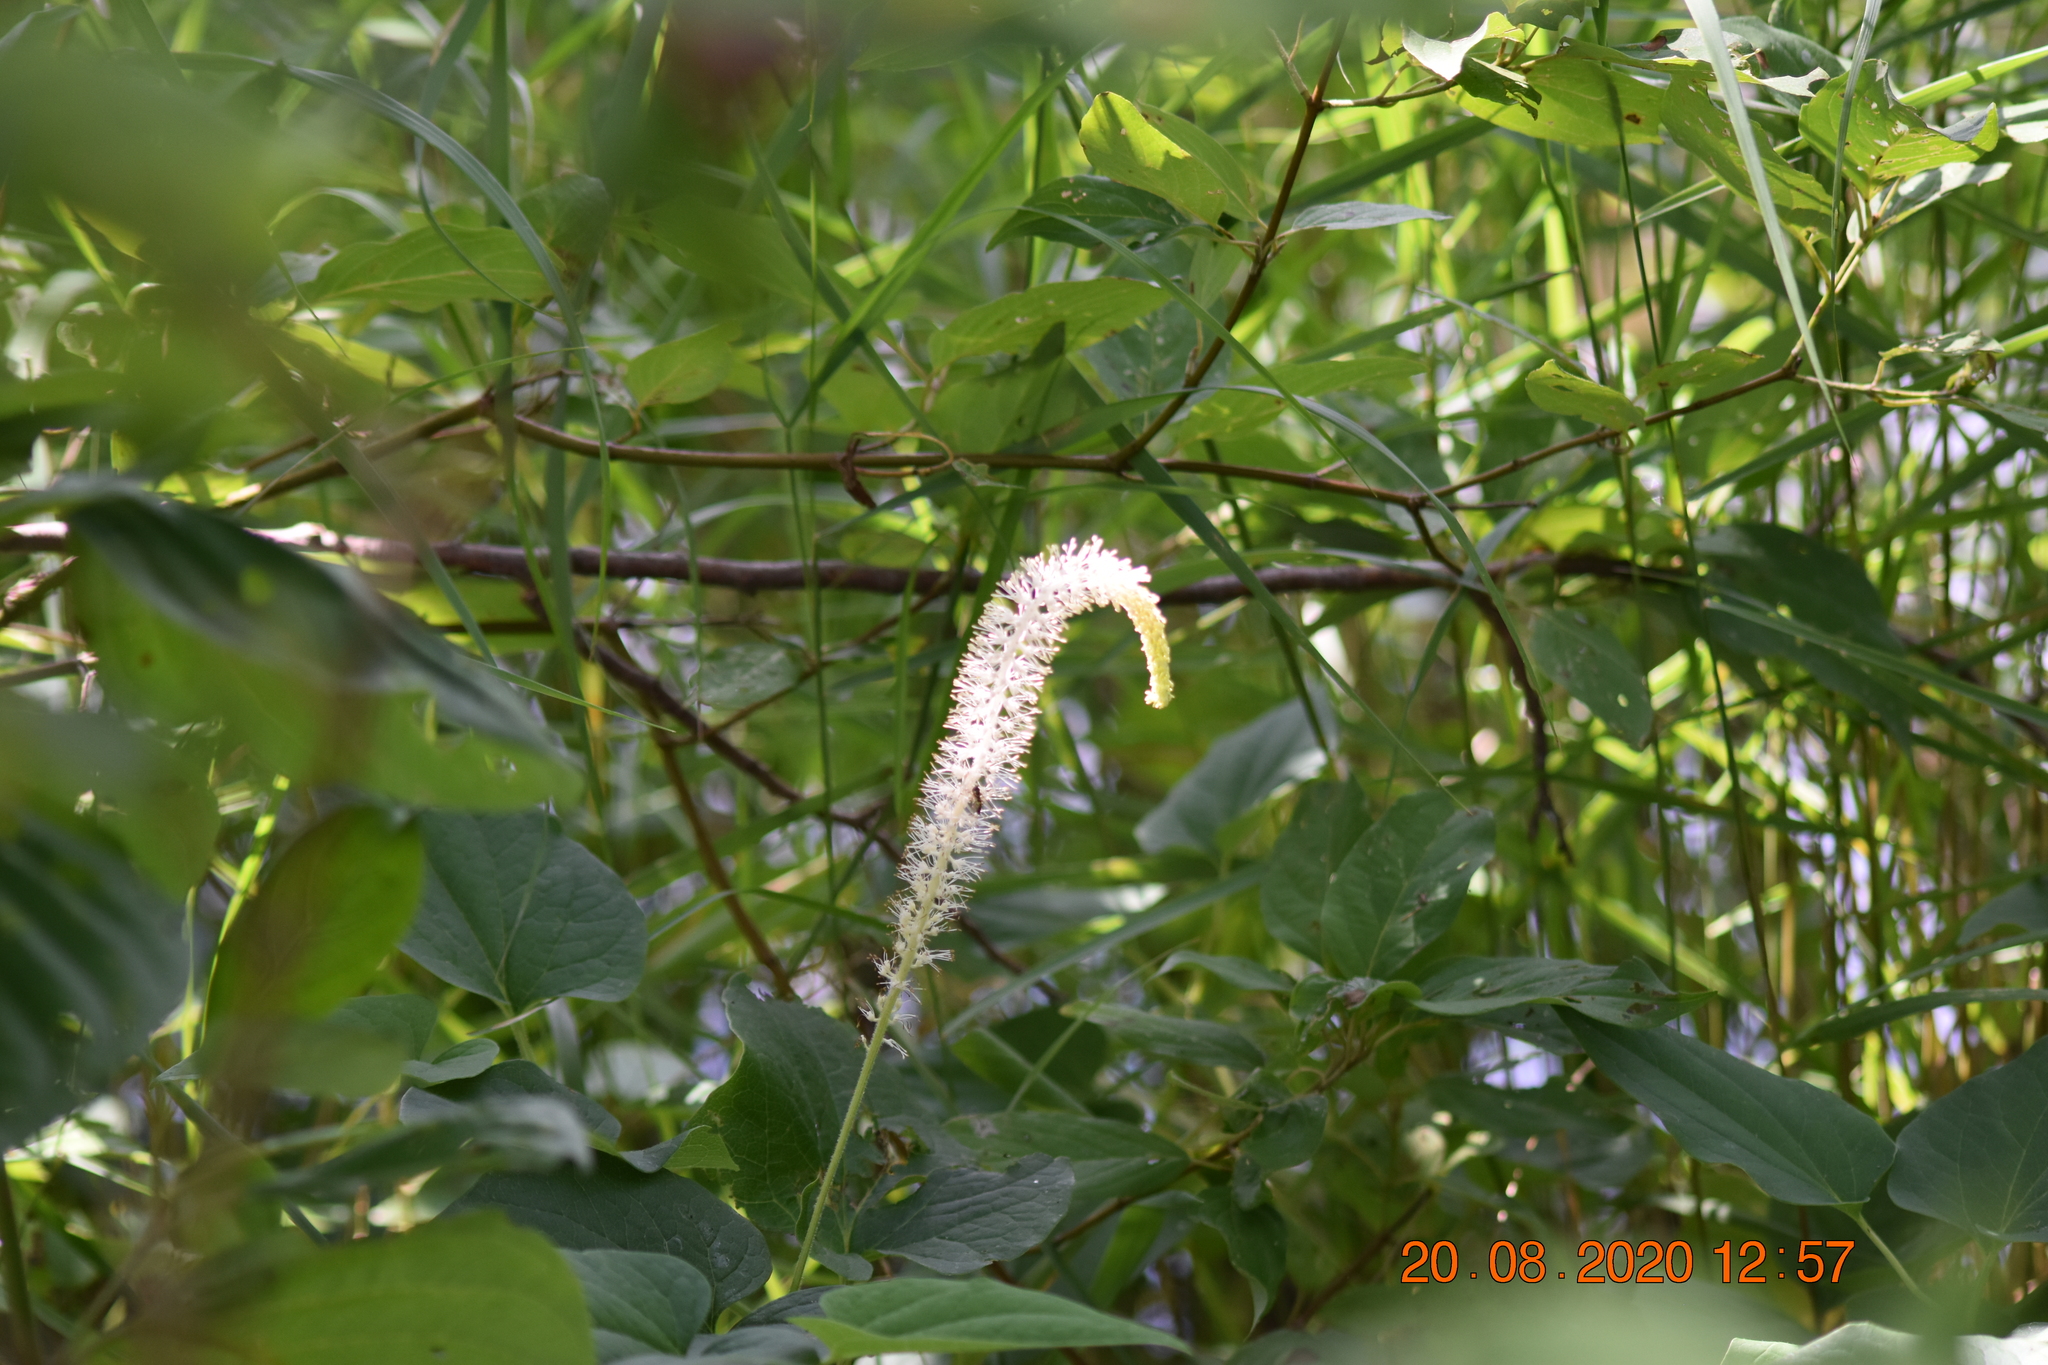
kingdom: Plantae
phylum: Tracheophyta
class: Magnoliopsida
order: Piperales
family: Saururaceae
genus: Saururus
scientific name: Saururus cernuus
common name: Lizard's-tail
